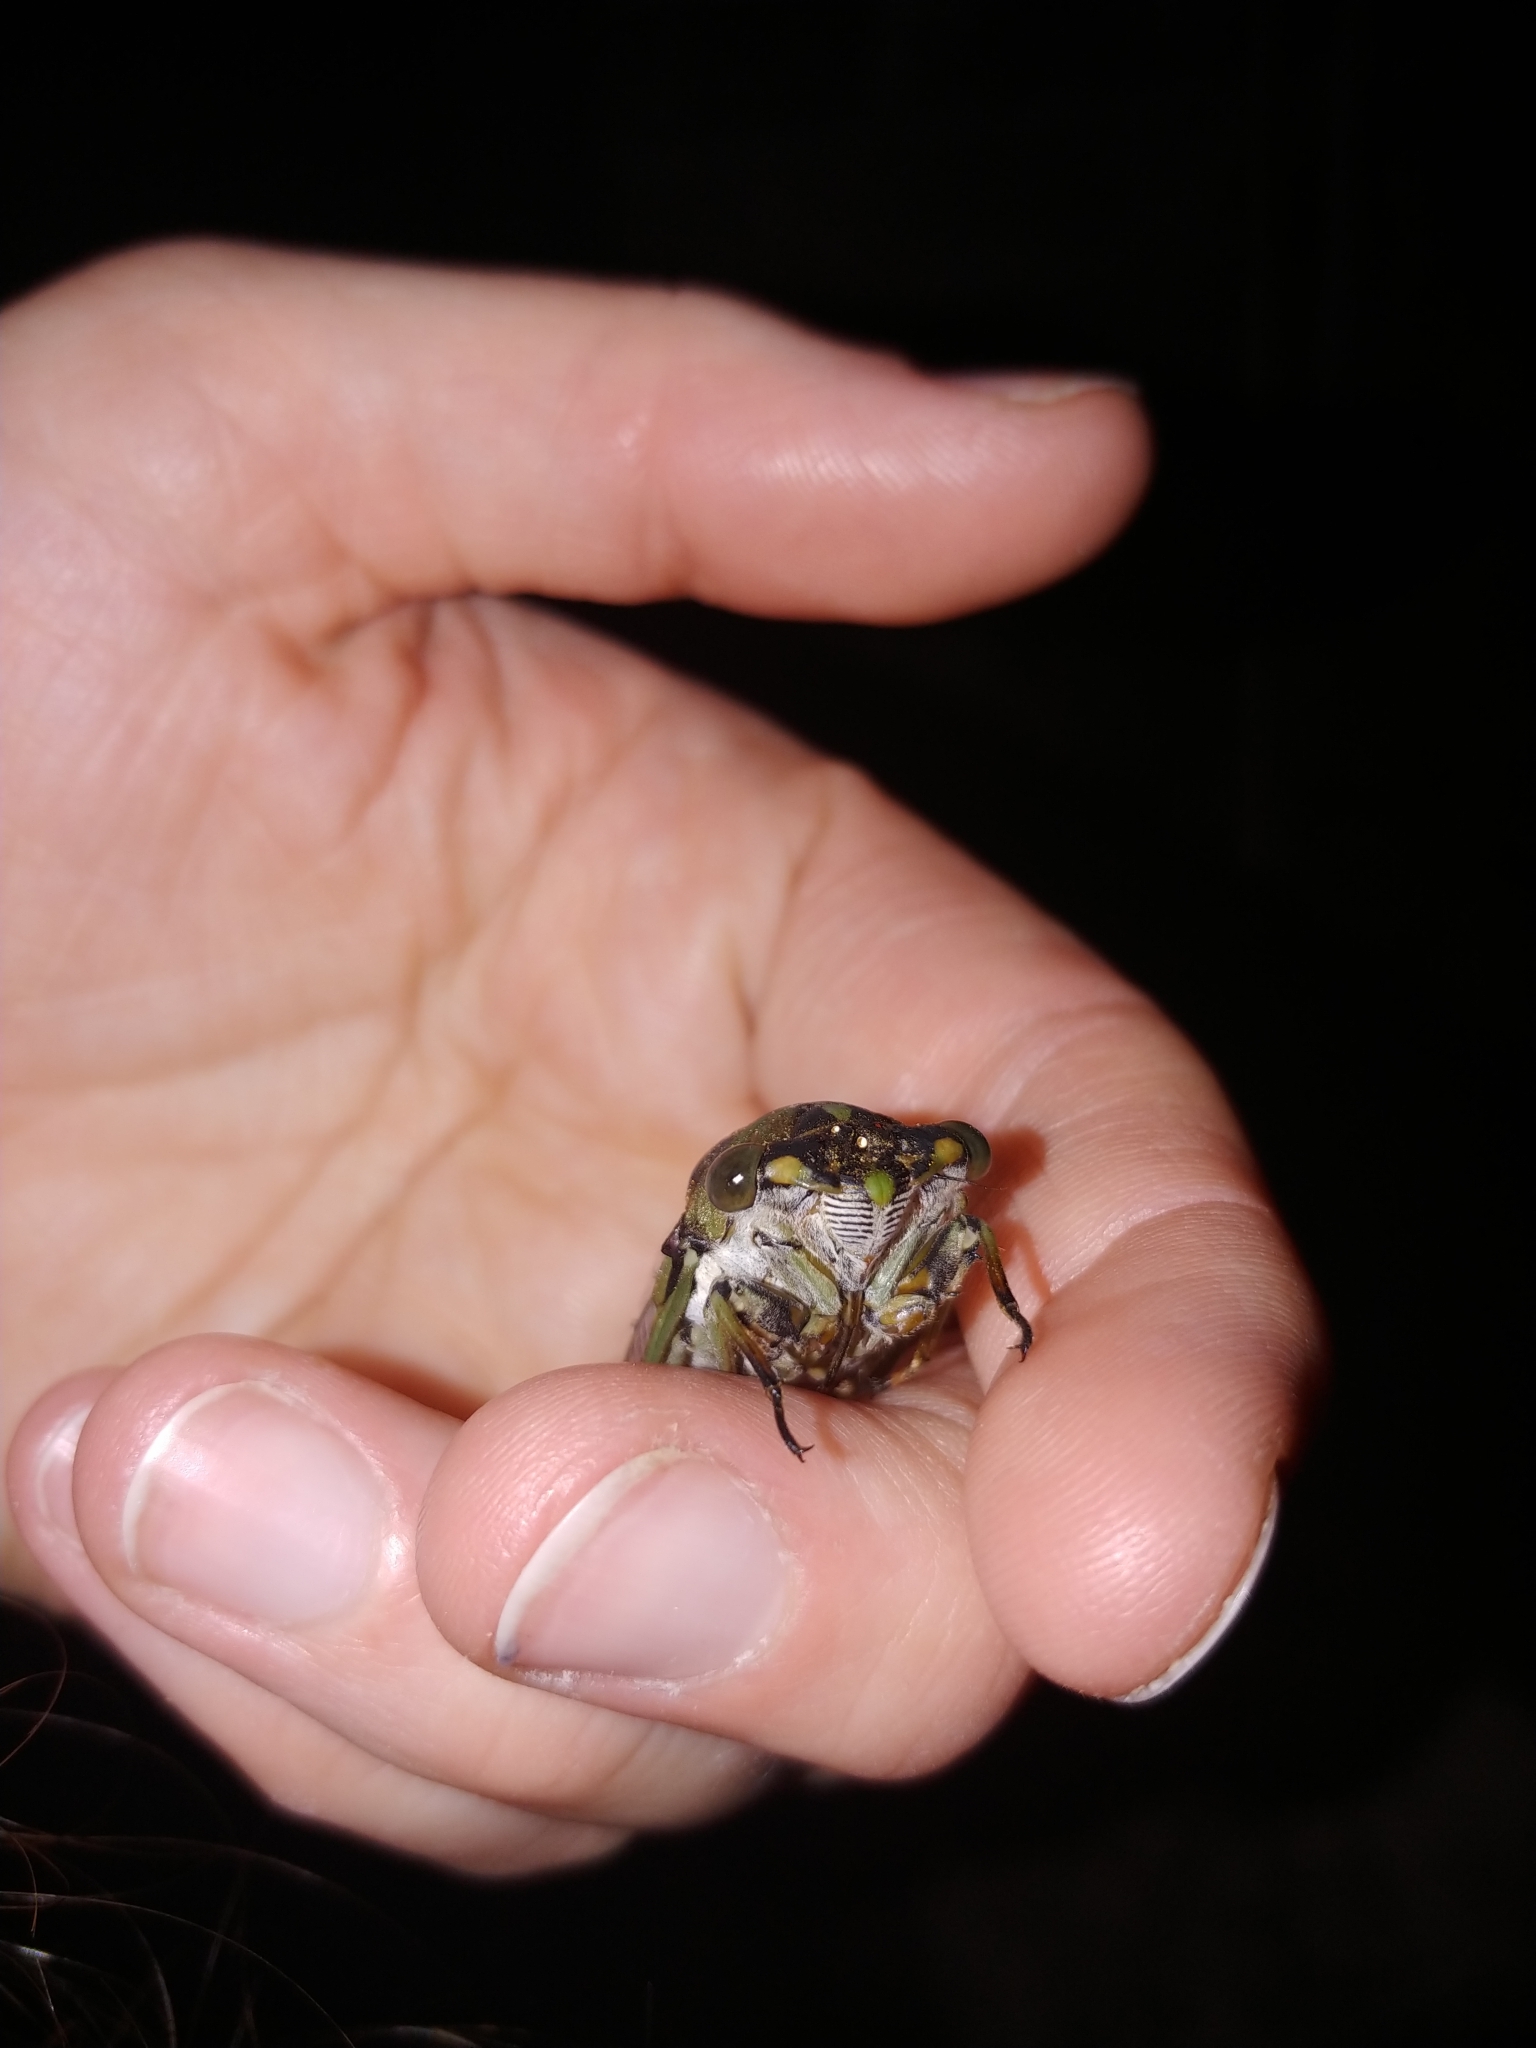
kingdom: Animalia
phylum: Arthropoda
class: Insecta
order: Hemiptera
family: Cicadidae
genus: Neotibicen
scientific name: Neotibicen linnei
